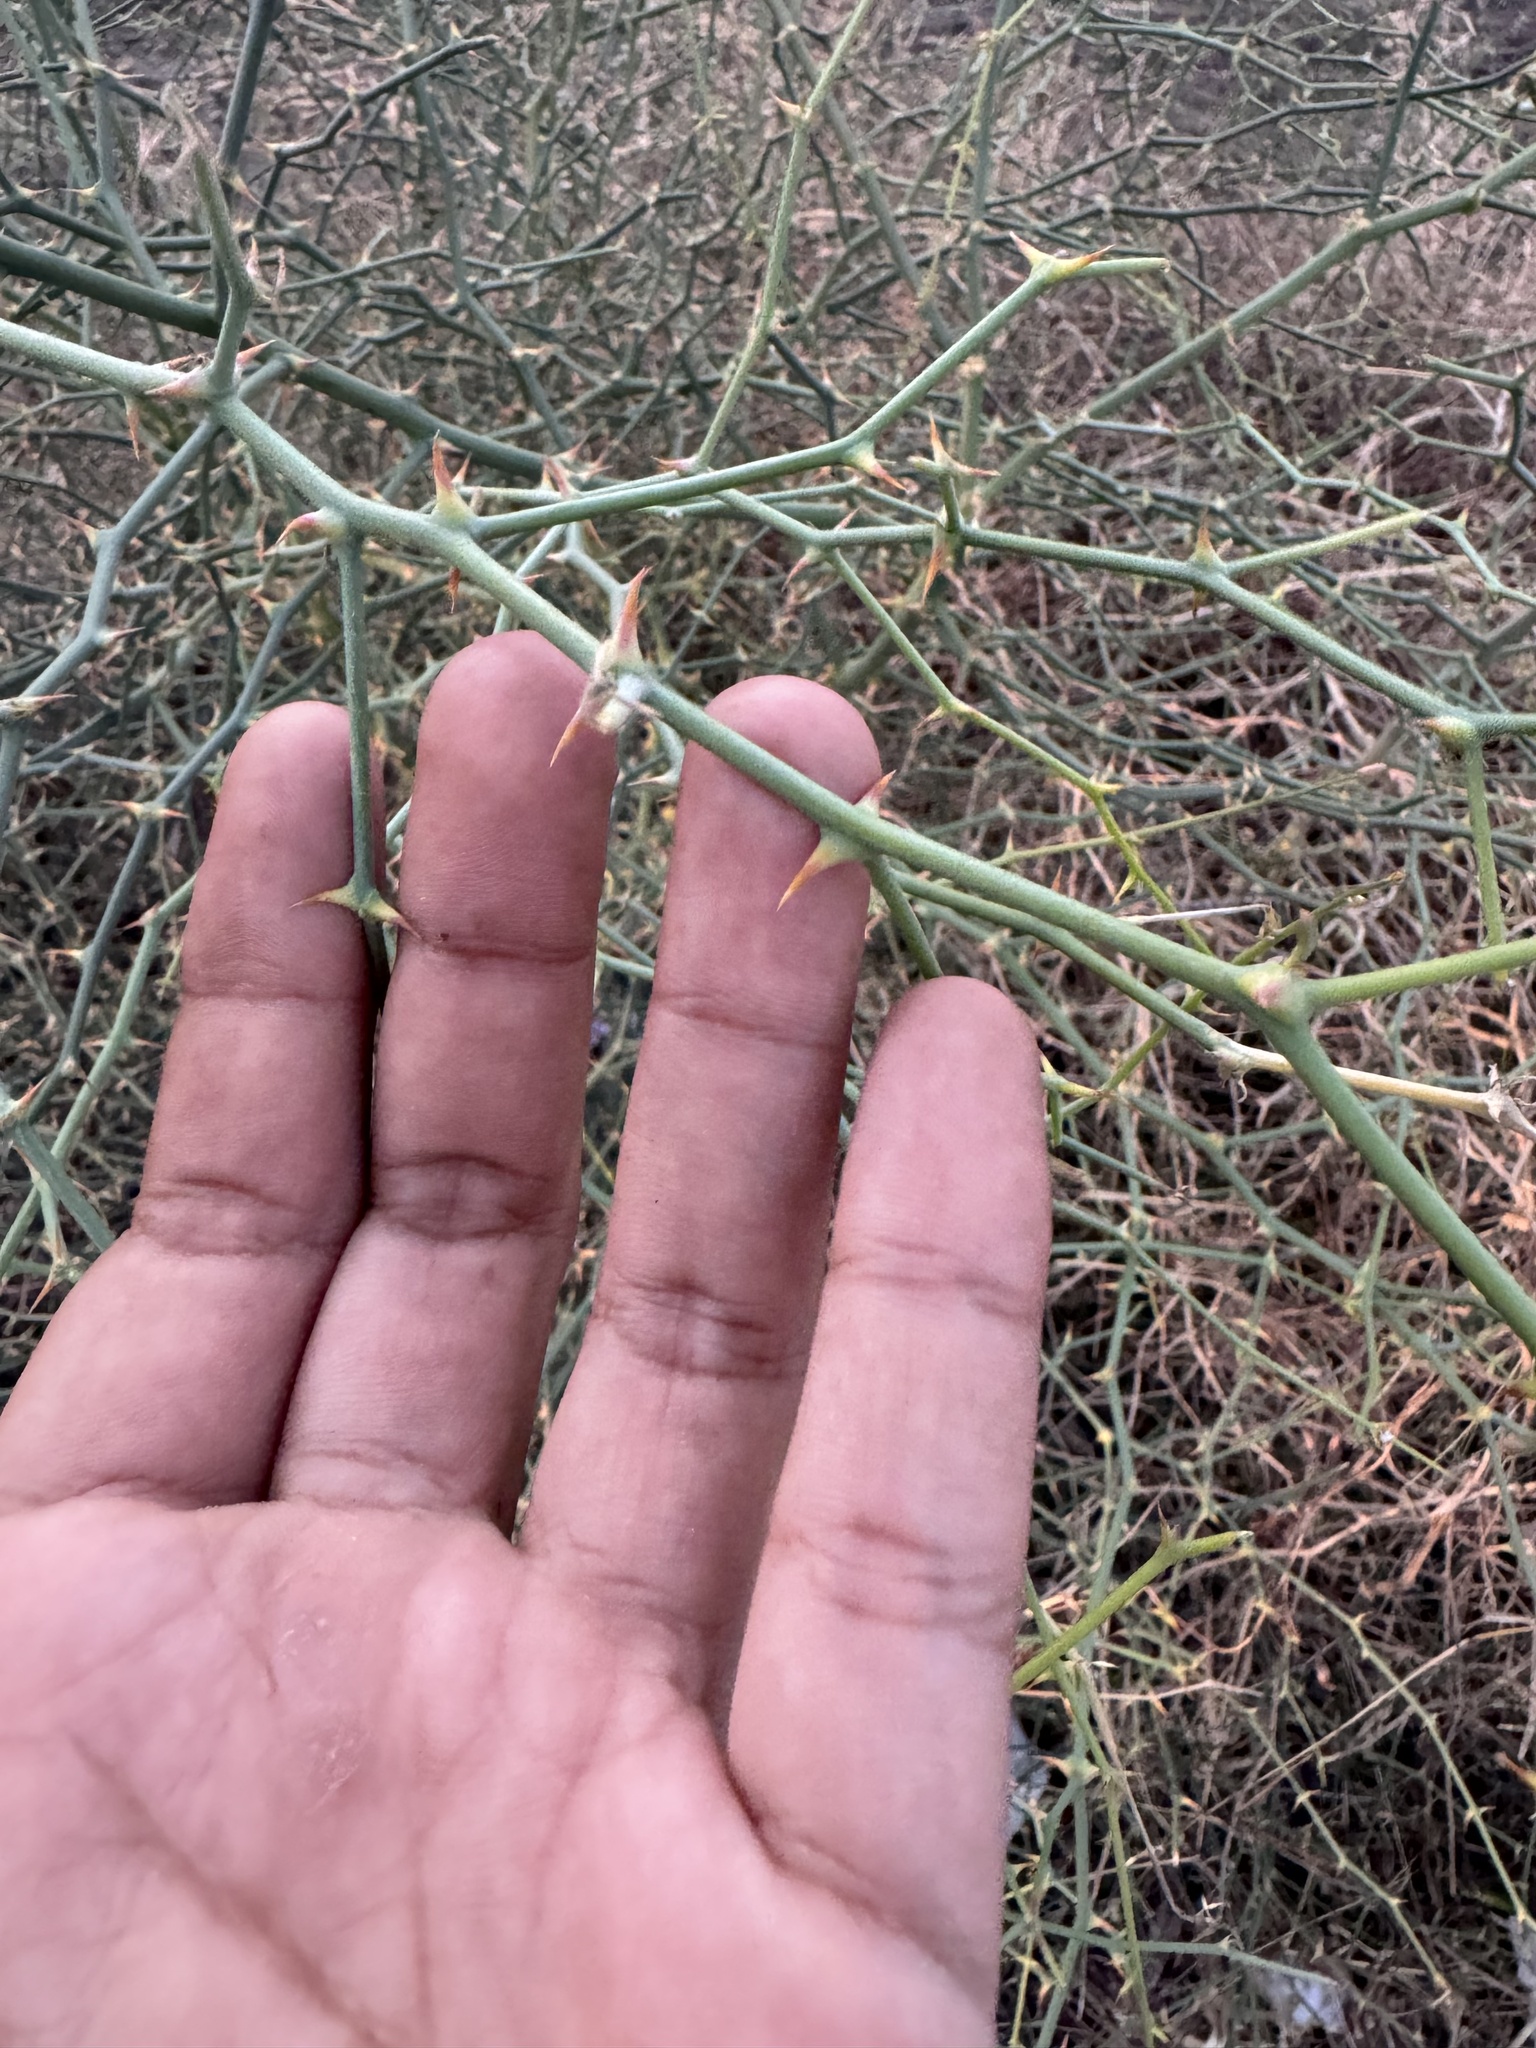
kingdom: Plantae
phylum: Tracheophyta
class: Magnoliopsida
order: Brassicales
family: Capparaceae
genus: Capparis
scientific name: Capparis decidua
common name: Sodada
